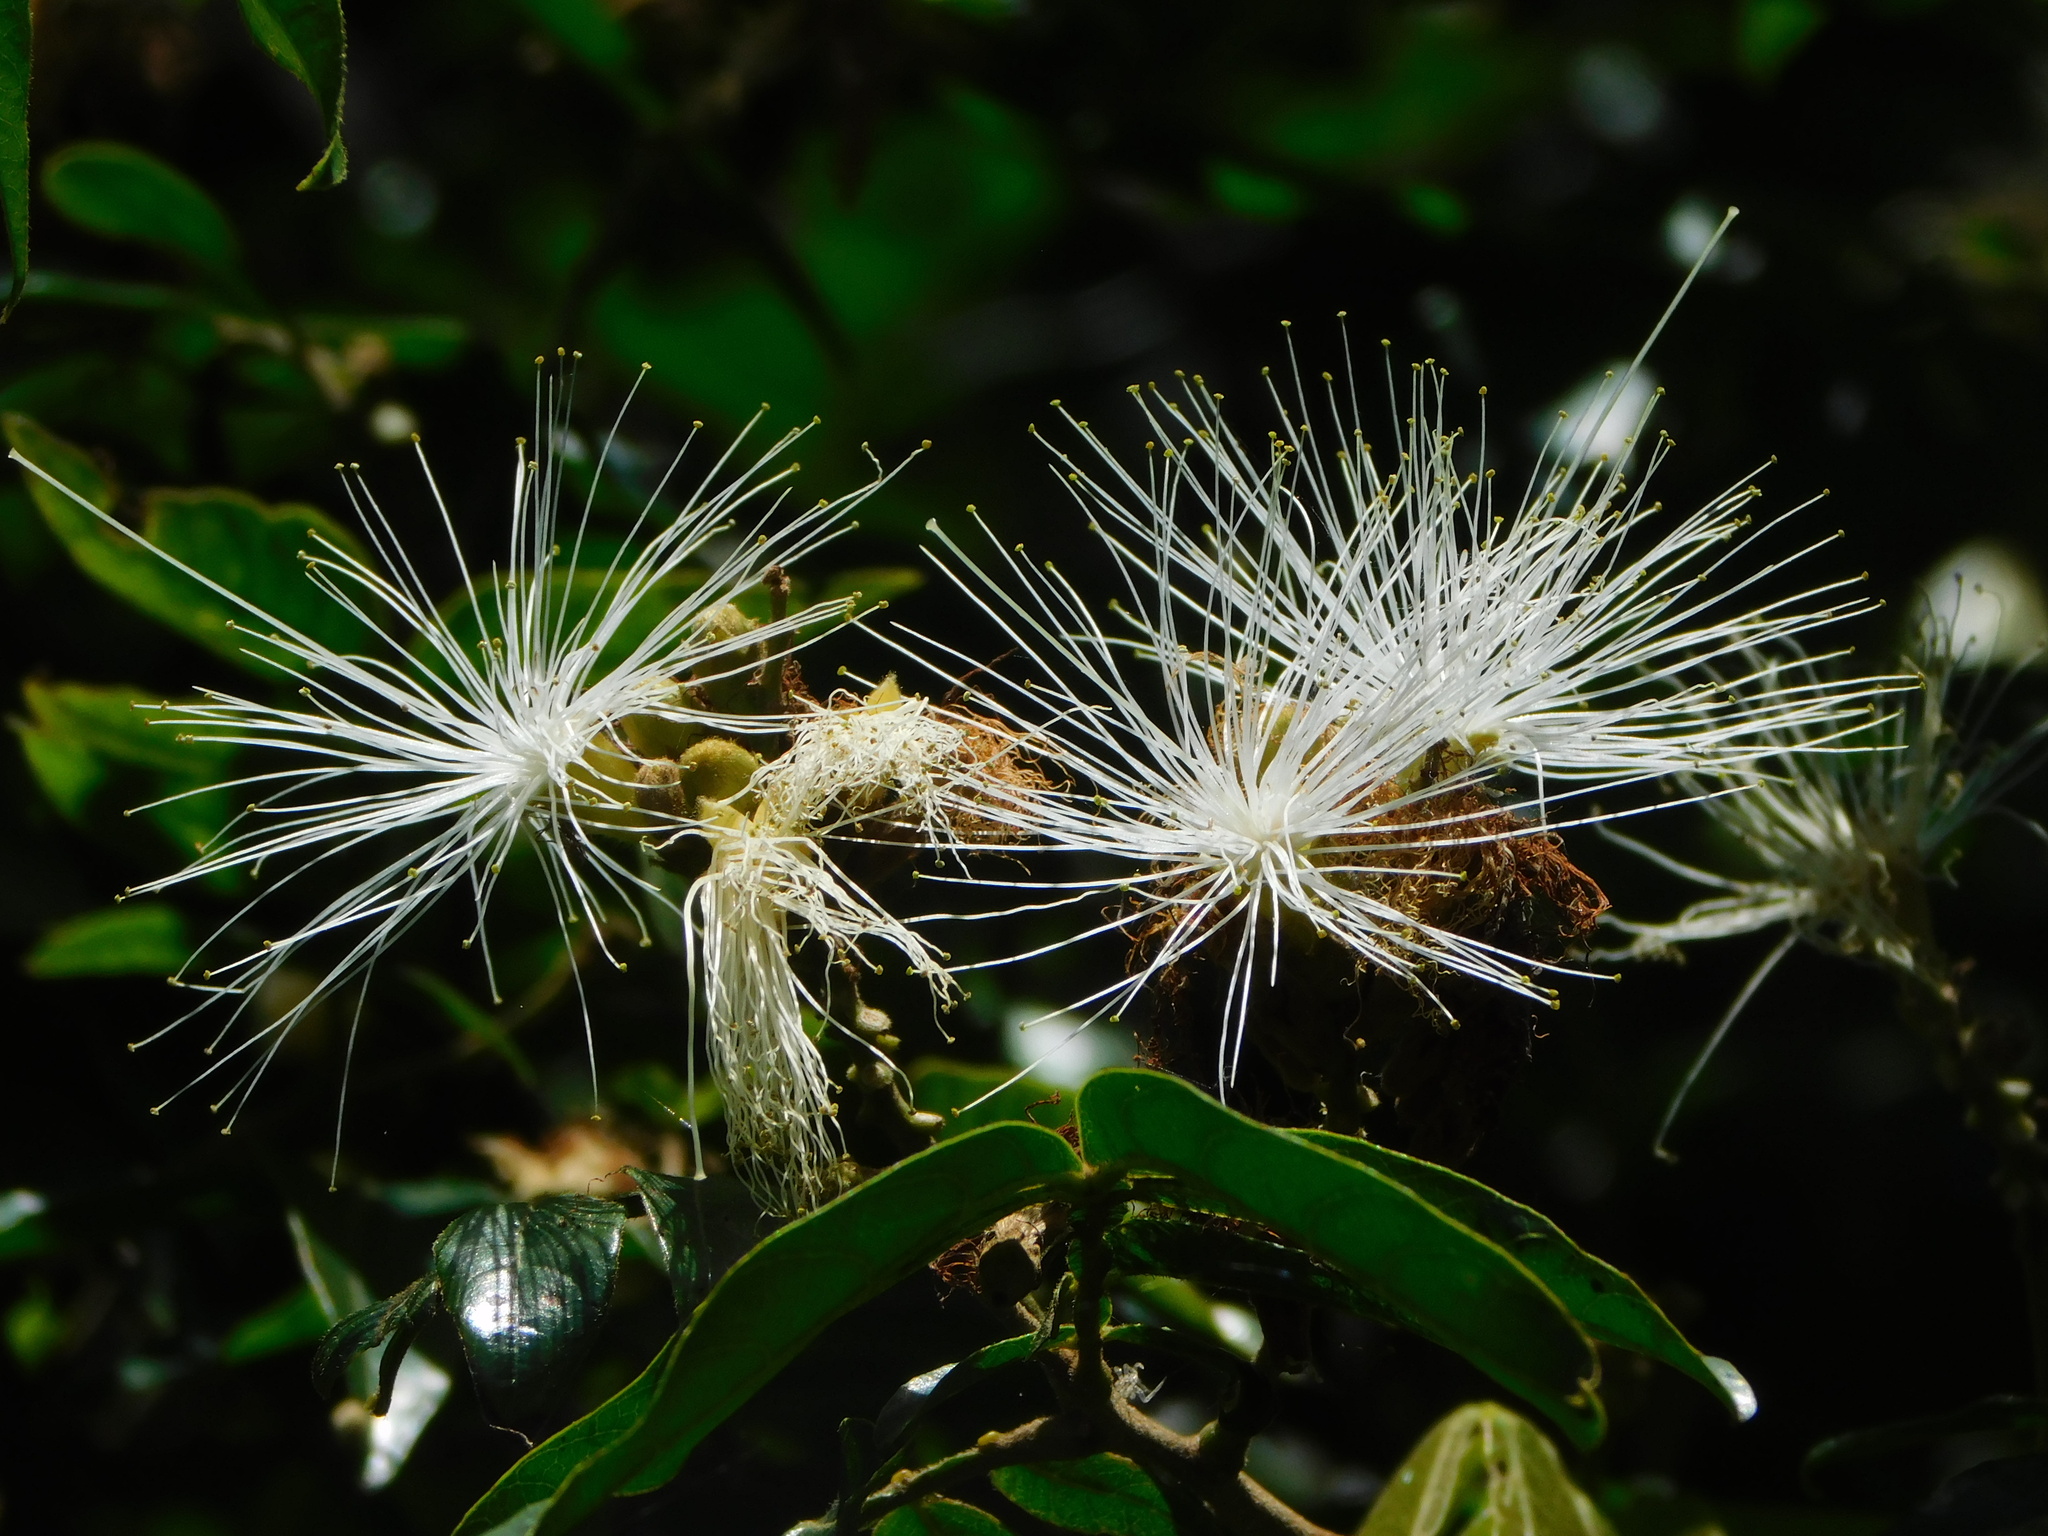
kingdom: Plantae
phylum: Tracheophyta
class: Magnoliopsida
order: Fabales
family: Fabaceae
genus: Inga
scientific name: Inga uraguensis
